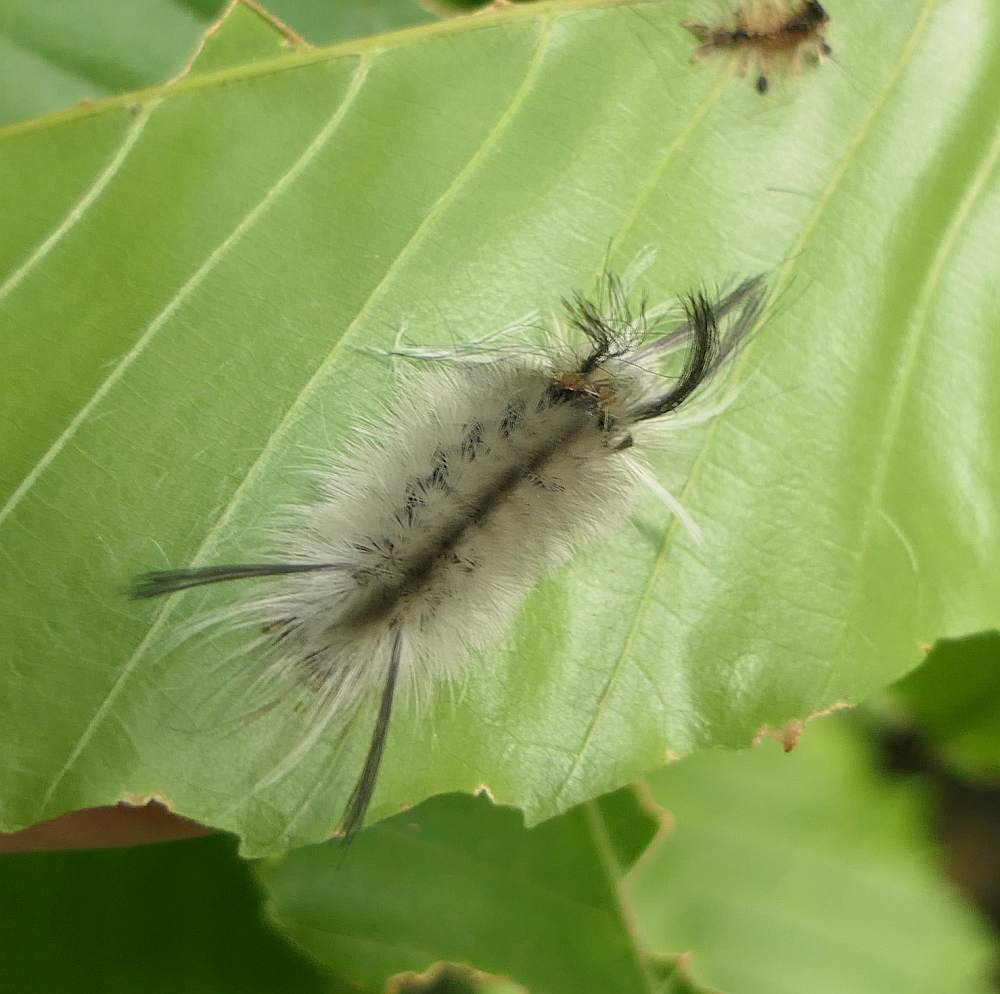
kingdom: Animalia
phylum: Arthropoda
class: Insecta
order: Lepidoptera
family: Erebidae
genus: Halysidota
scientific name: Halysidota tessellaris
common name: Banded tussock moth
